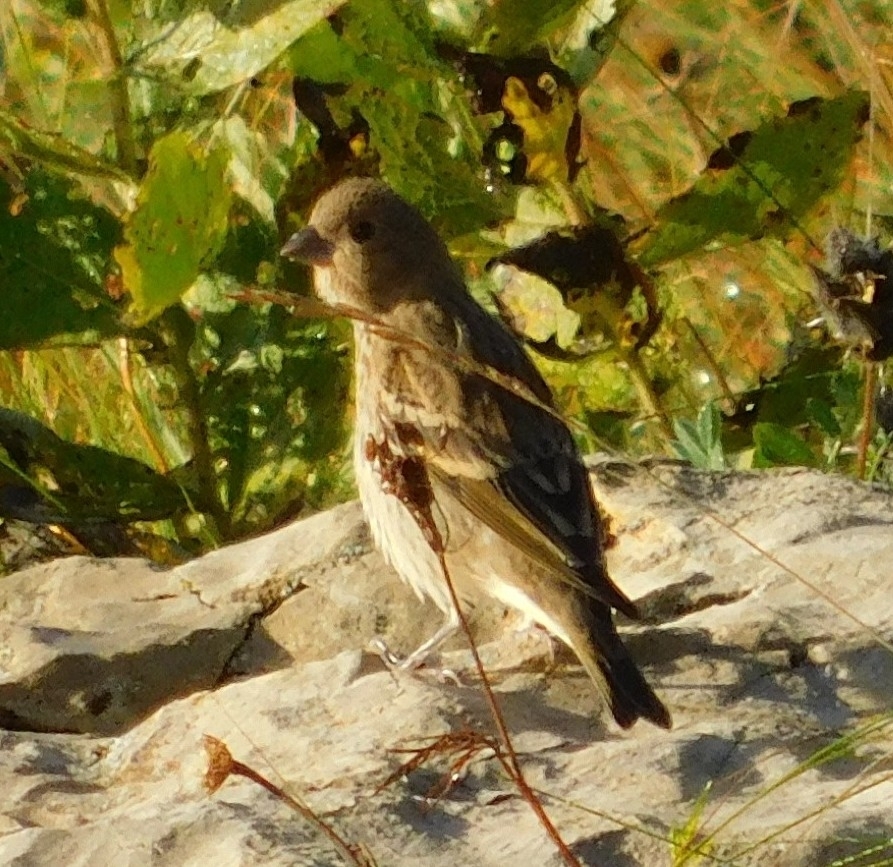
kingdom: Animalia
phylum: Chordata
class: Aves
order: Passeriformes
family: Fringillidae
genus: Carpodacus
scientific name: Carpodacus erythrinus
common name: Common rosefinch
